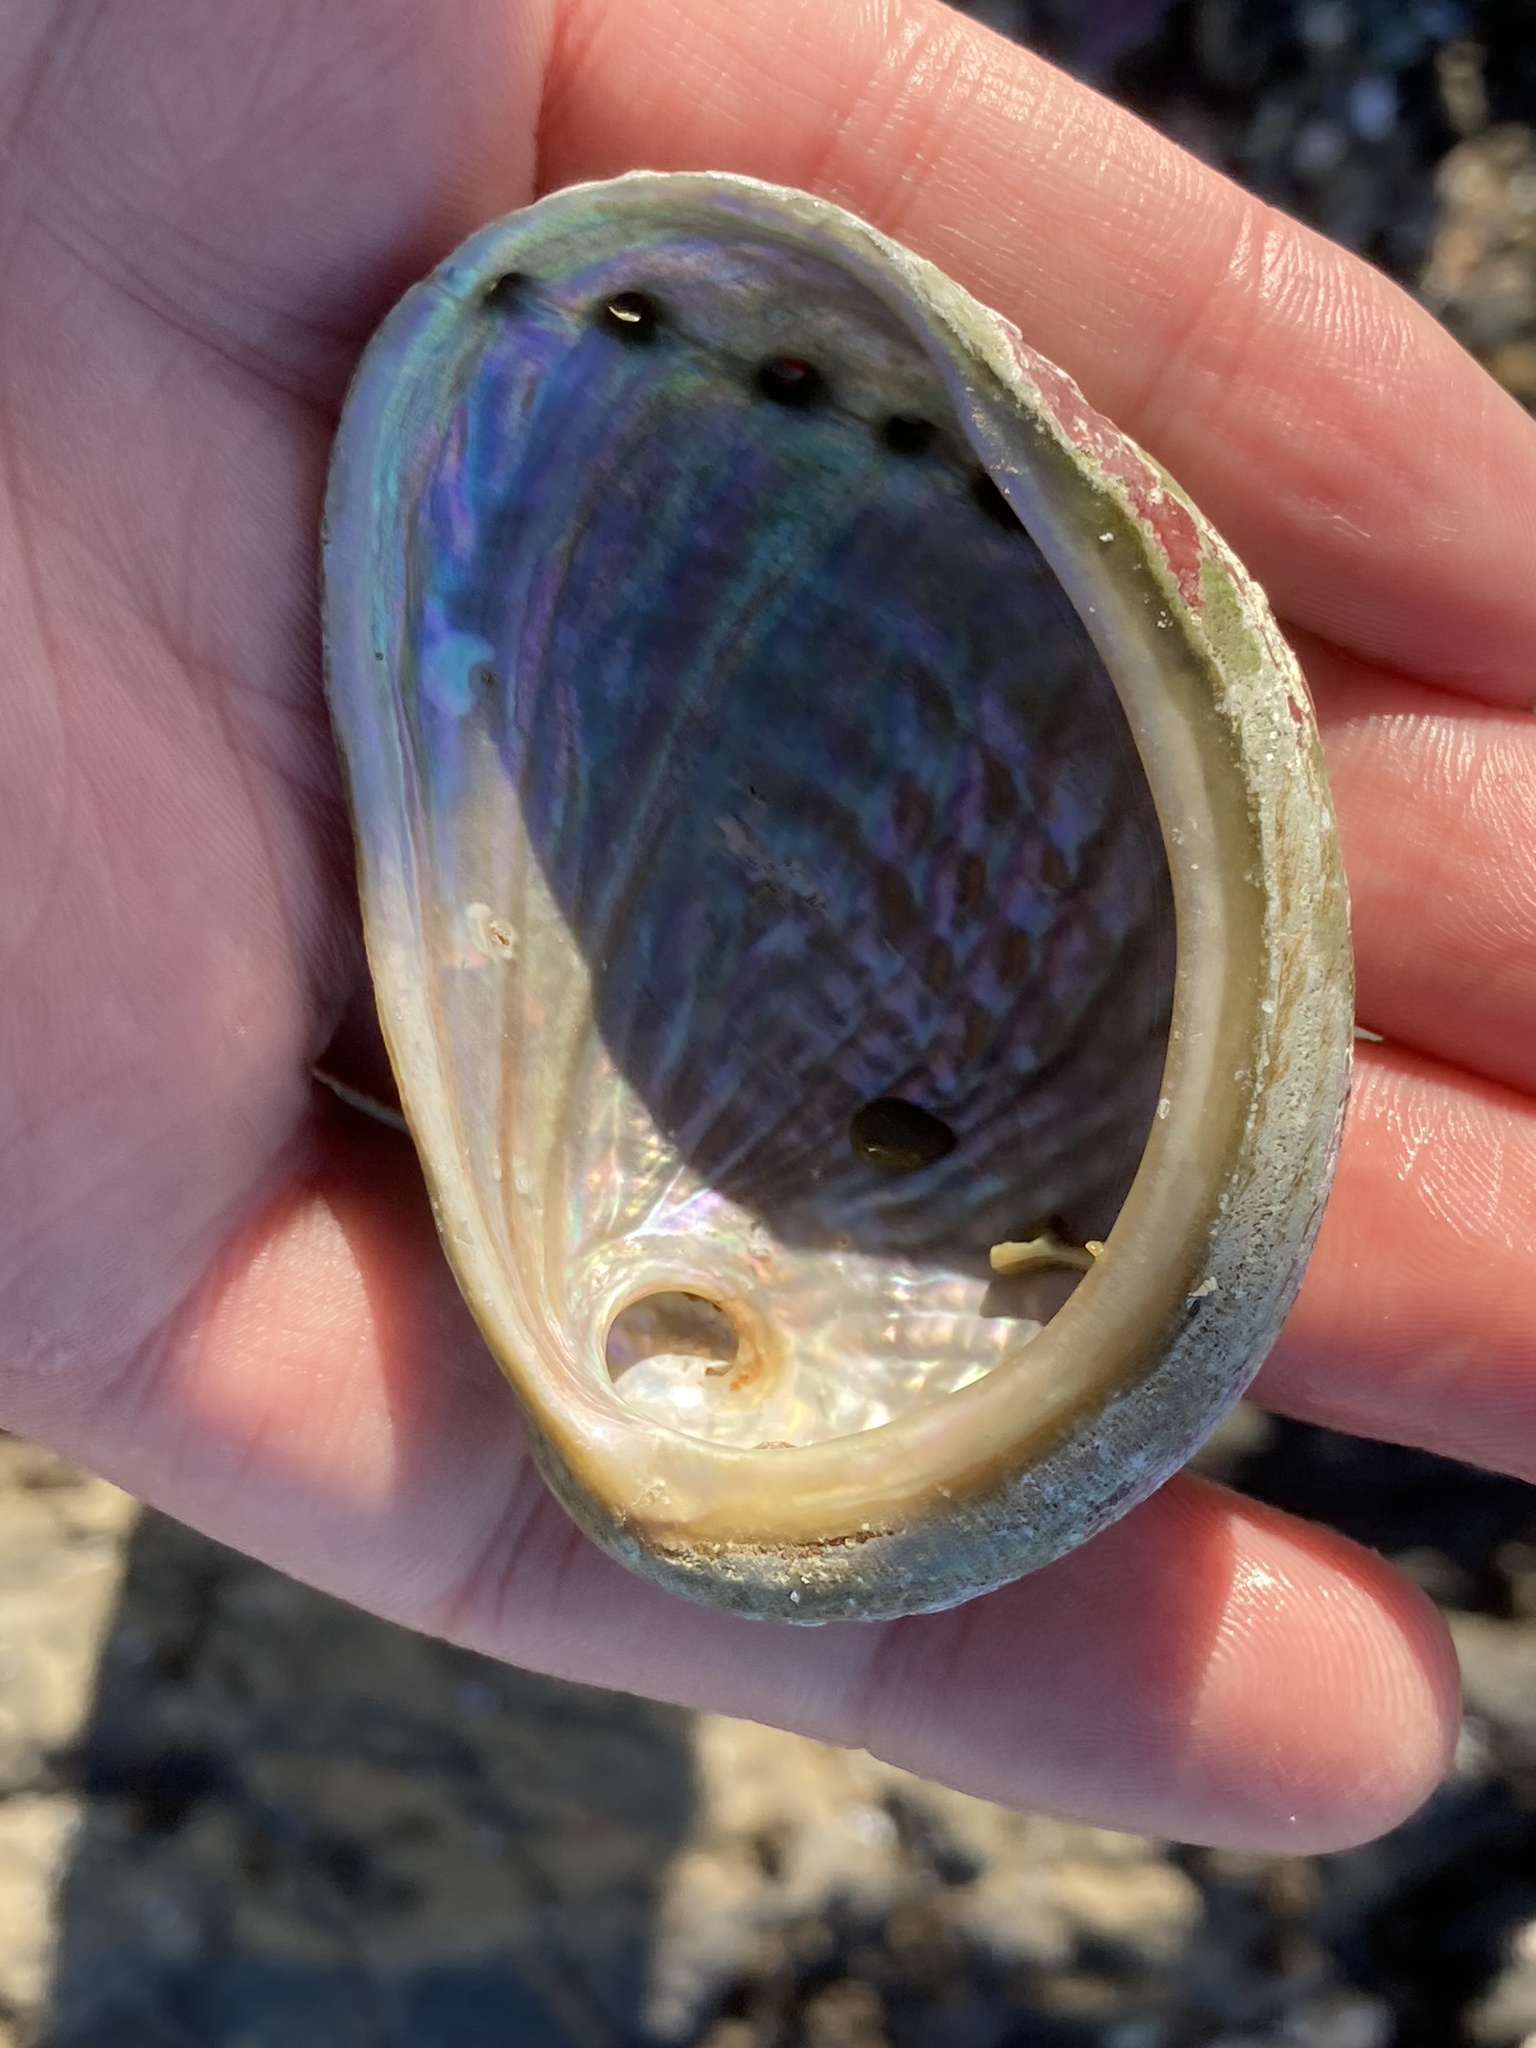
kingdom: Animalia
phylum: Mollusca
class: Gastropoda
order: Lepetellida
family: Haliotidae
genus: Haliotis
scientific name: Haliotis australis
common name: Silver abalone
